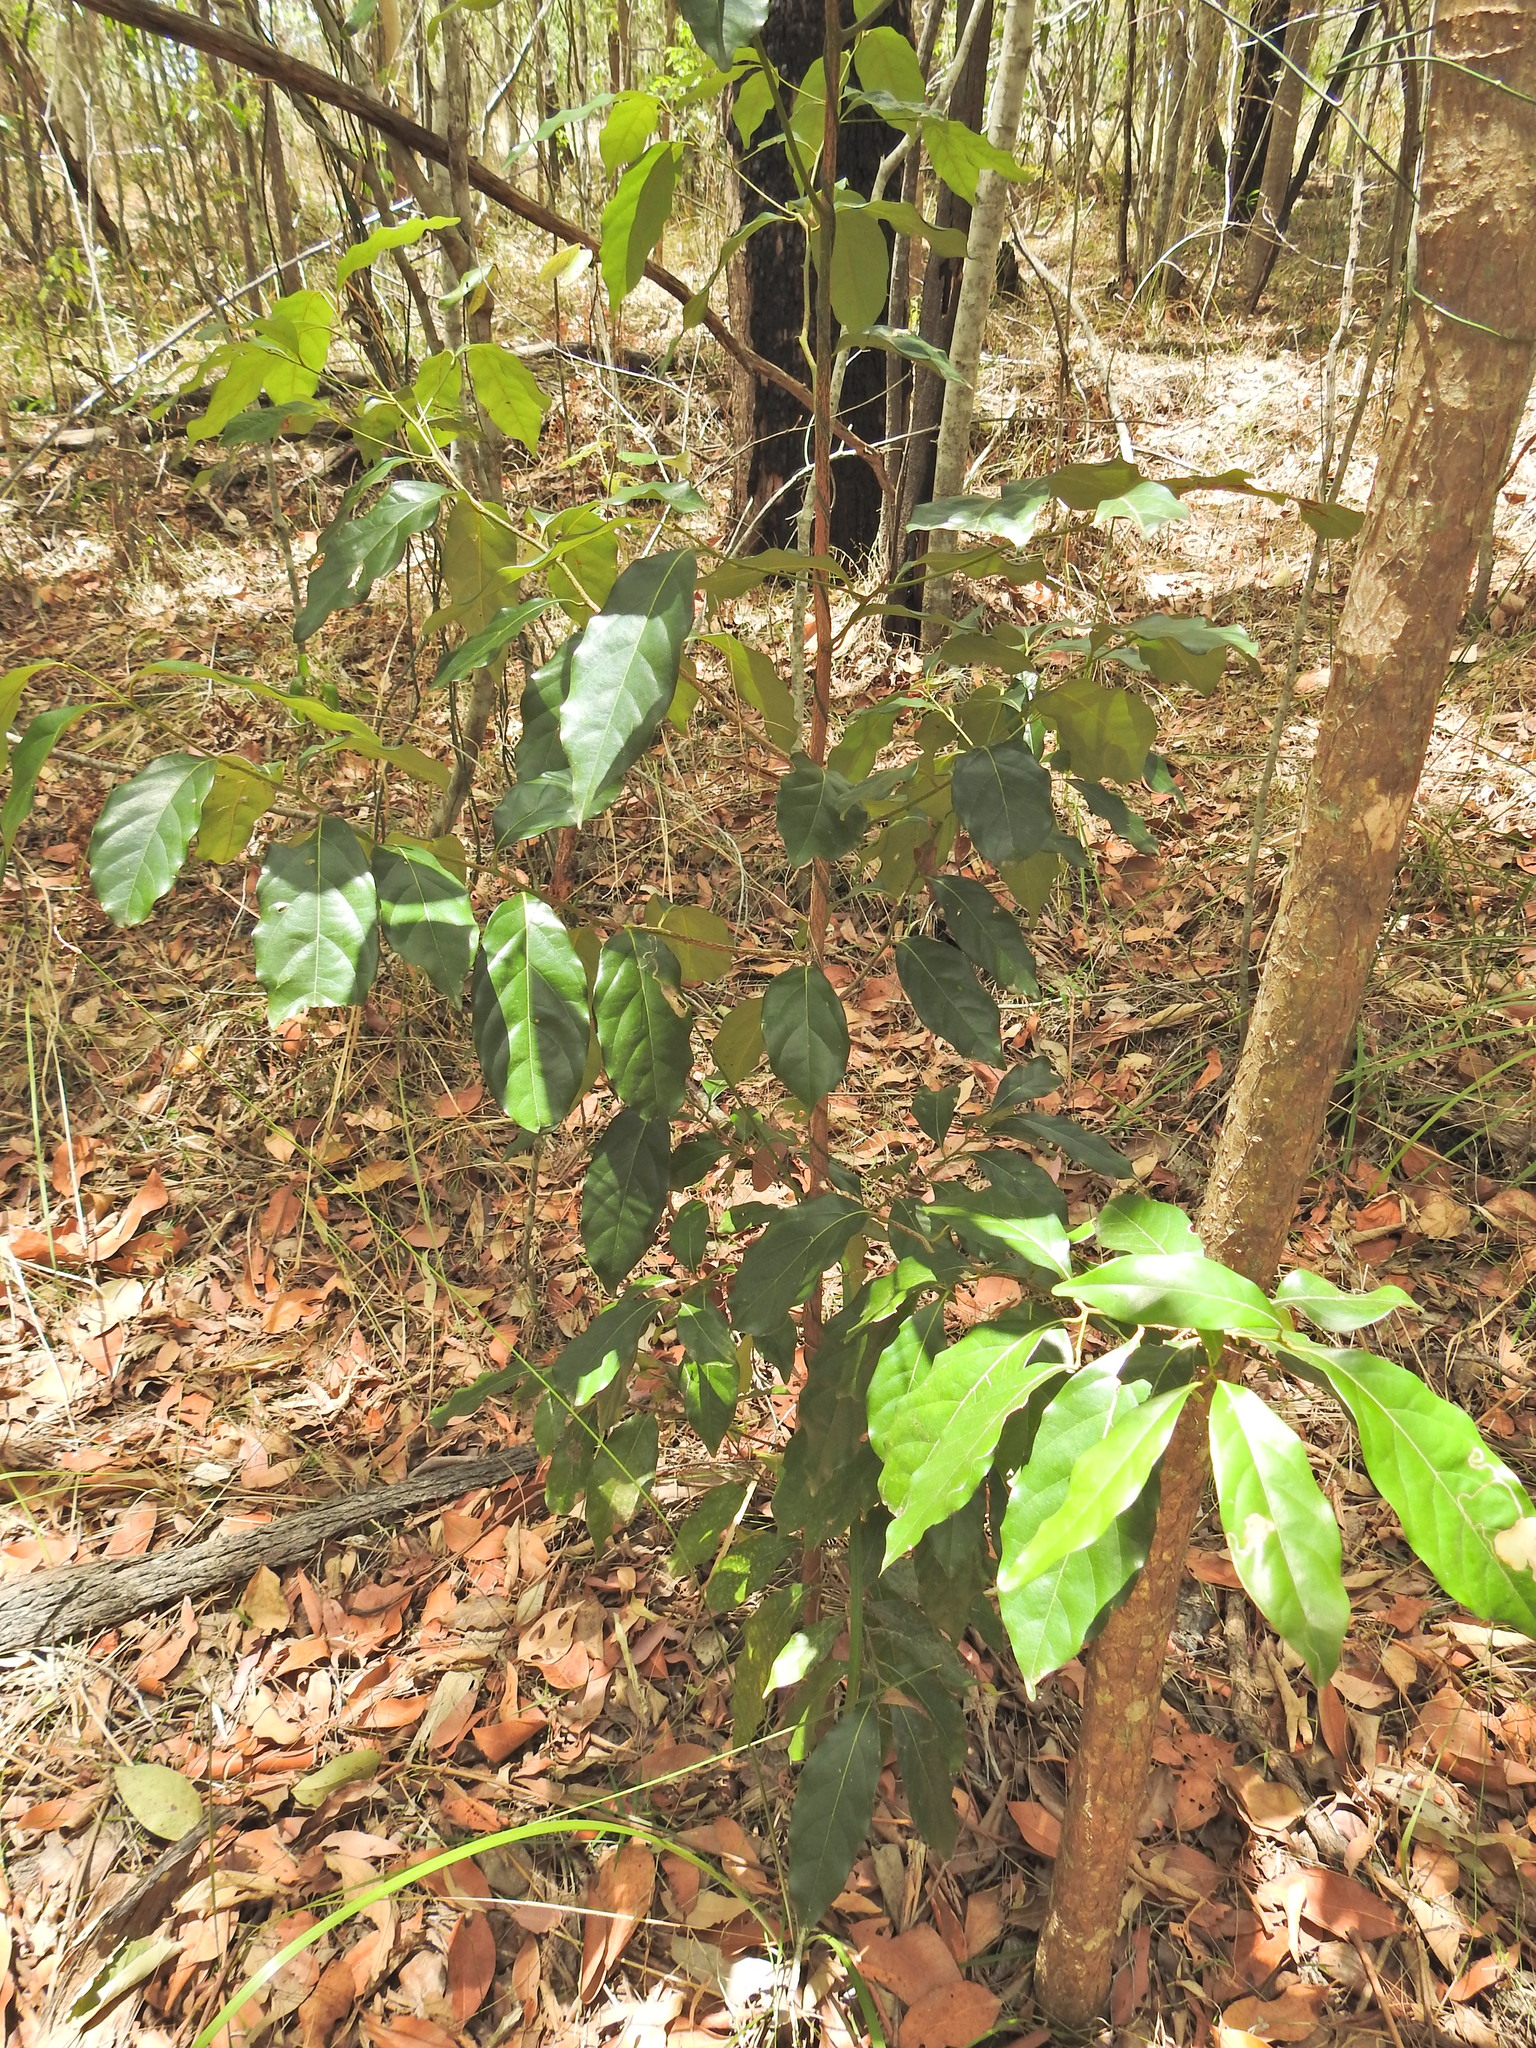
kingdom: Plantae
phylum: Tracheophyta
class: Magnoliopsida
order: Laurales
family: Lauraceae
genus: Cryptocarya
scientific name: Cryptocarya macdonaldii
